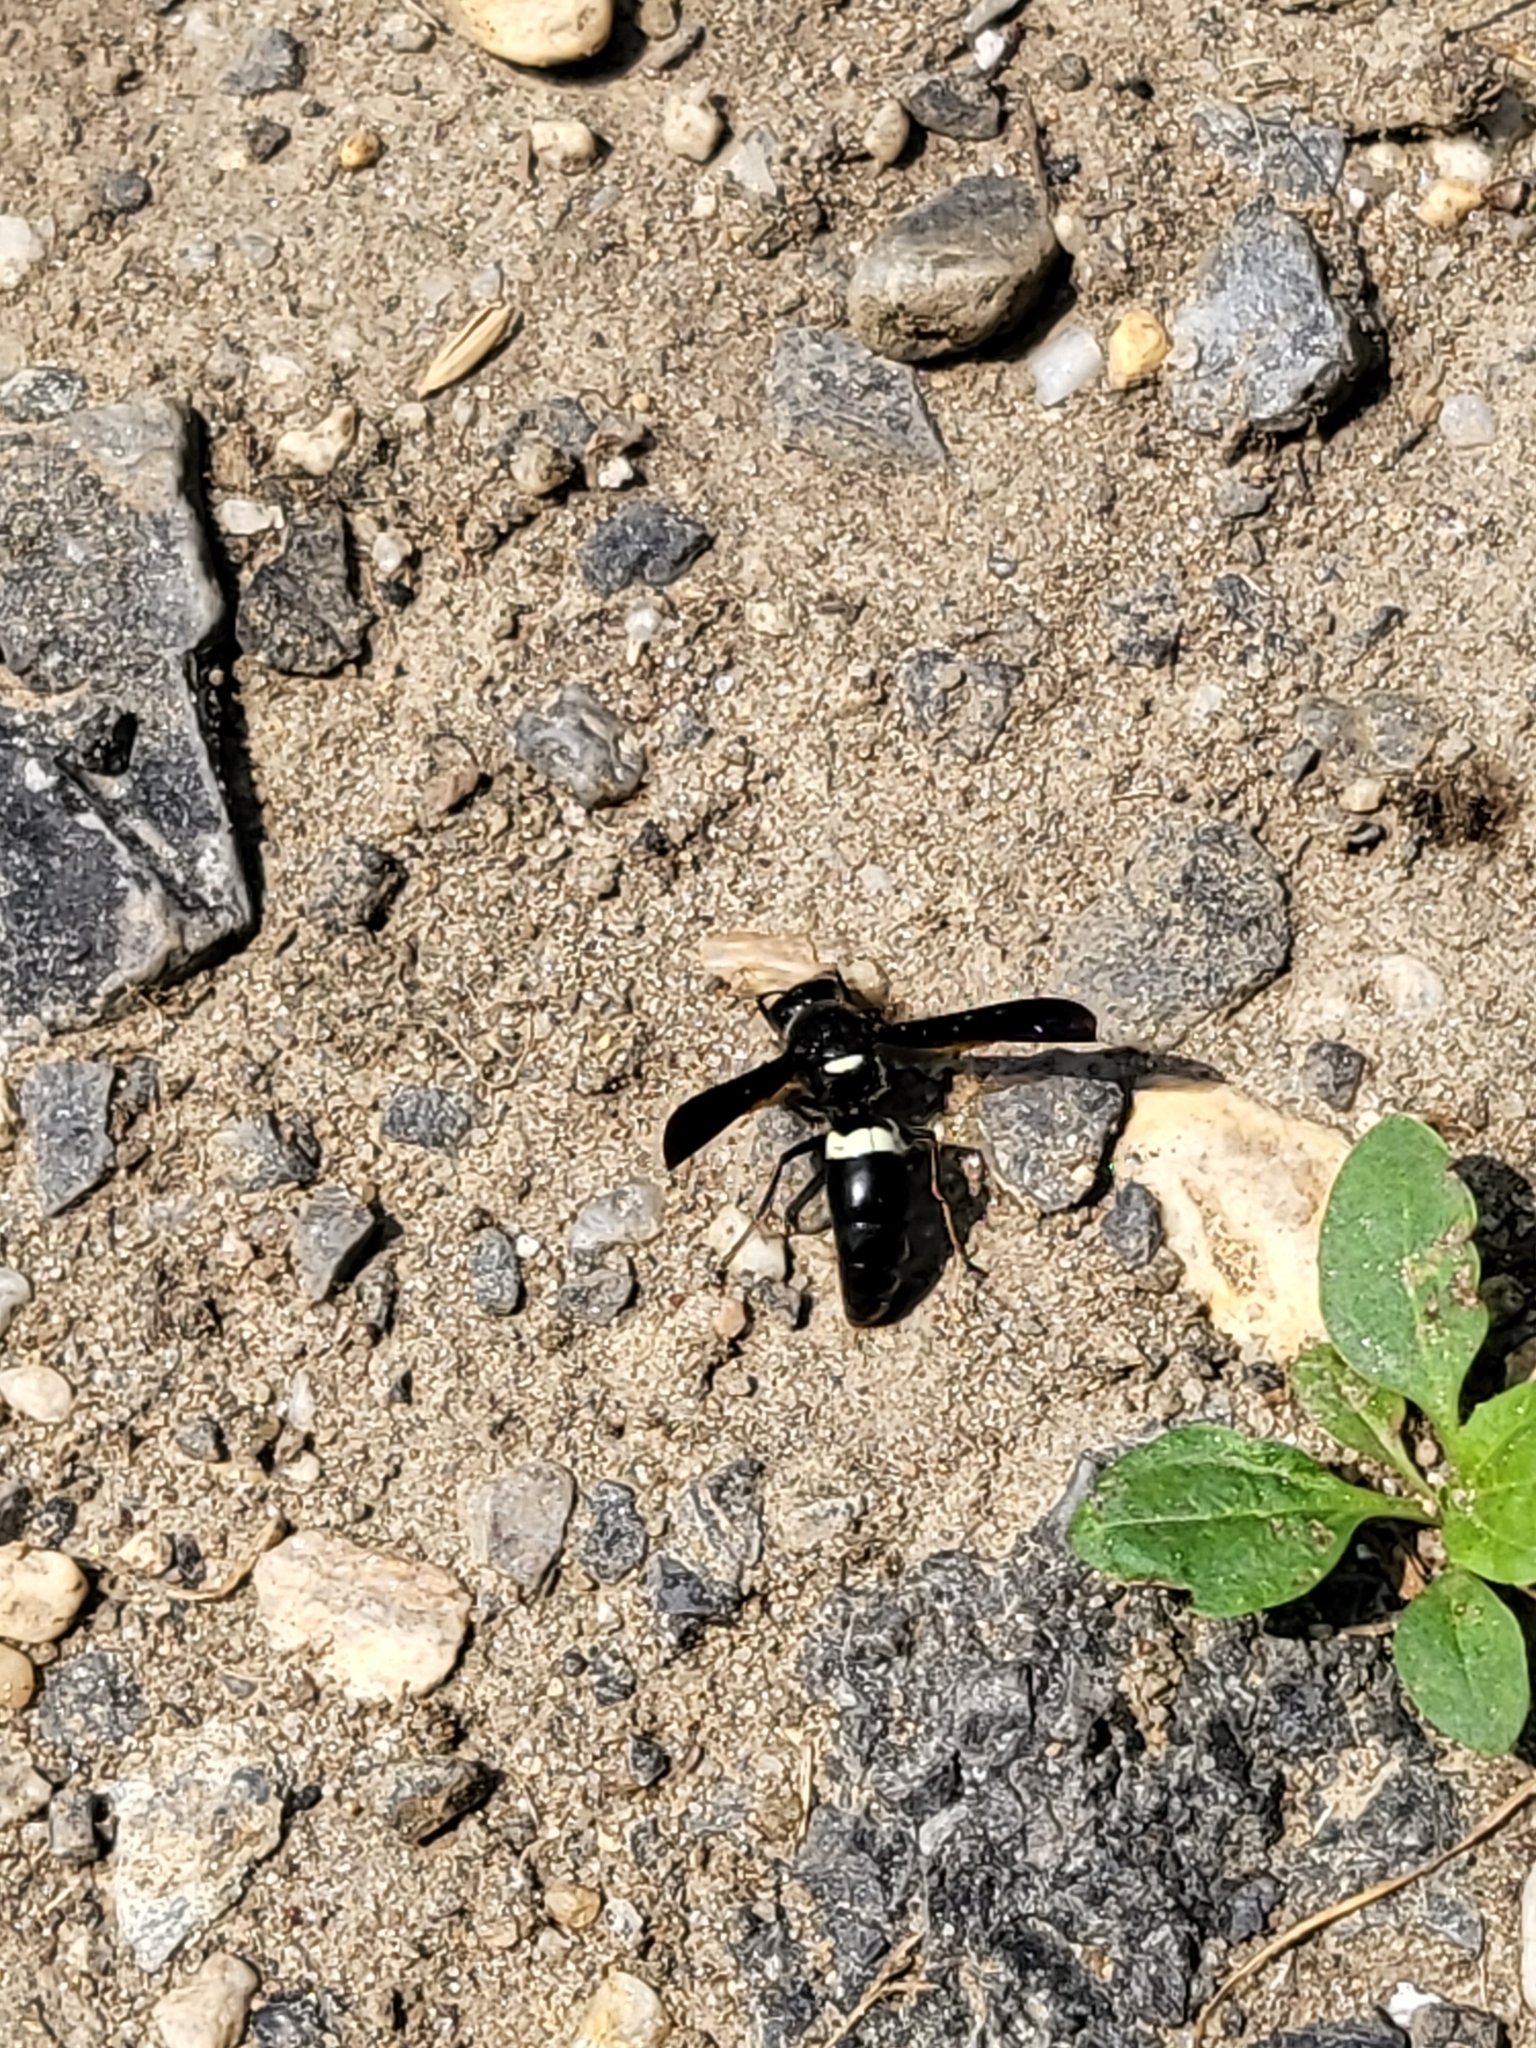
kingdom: Animalia
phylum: Arthropoda
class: Insecta
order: Hymenoptera
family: Eumenidae
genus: Monobia
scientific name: Monobia quadridens
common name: Four-toothed mason wasp
